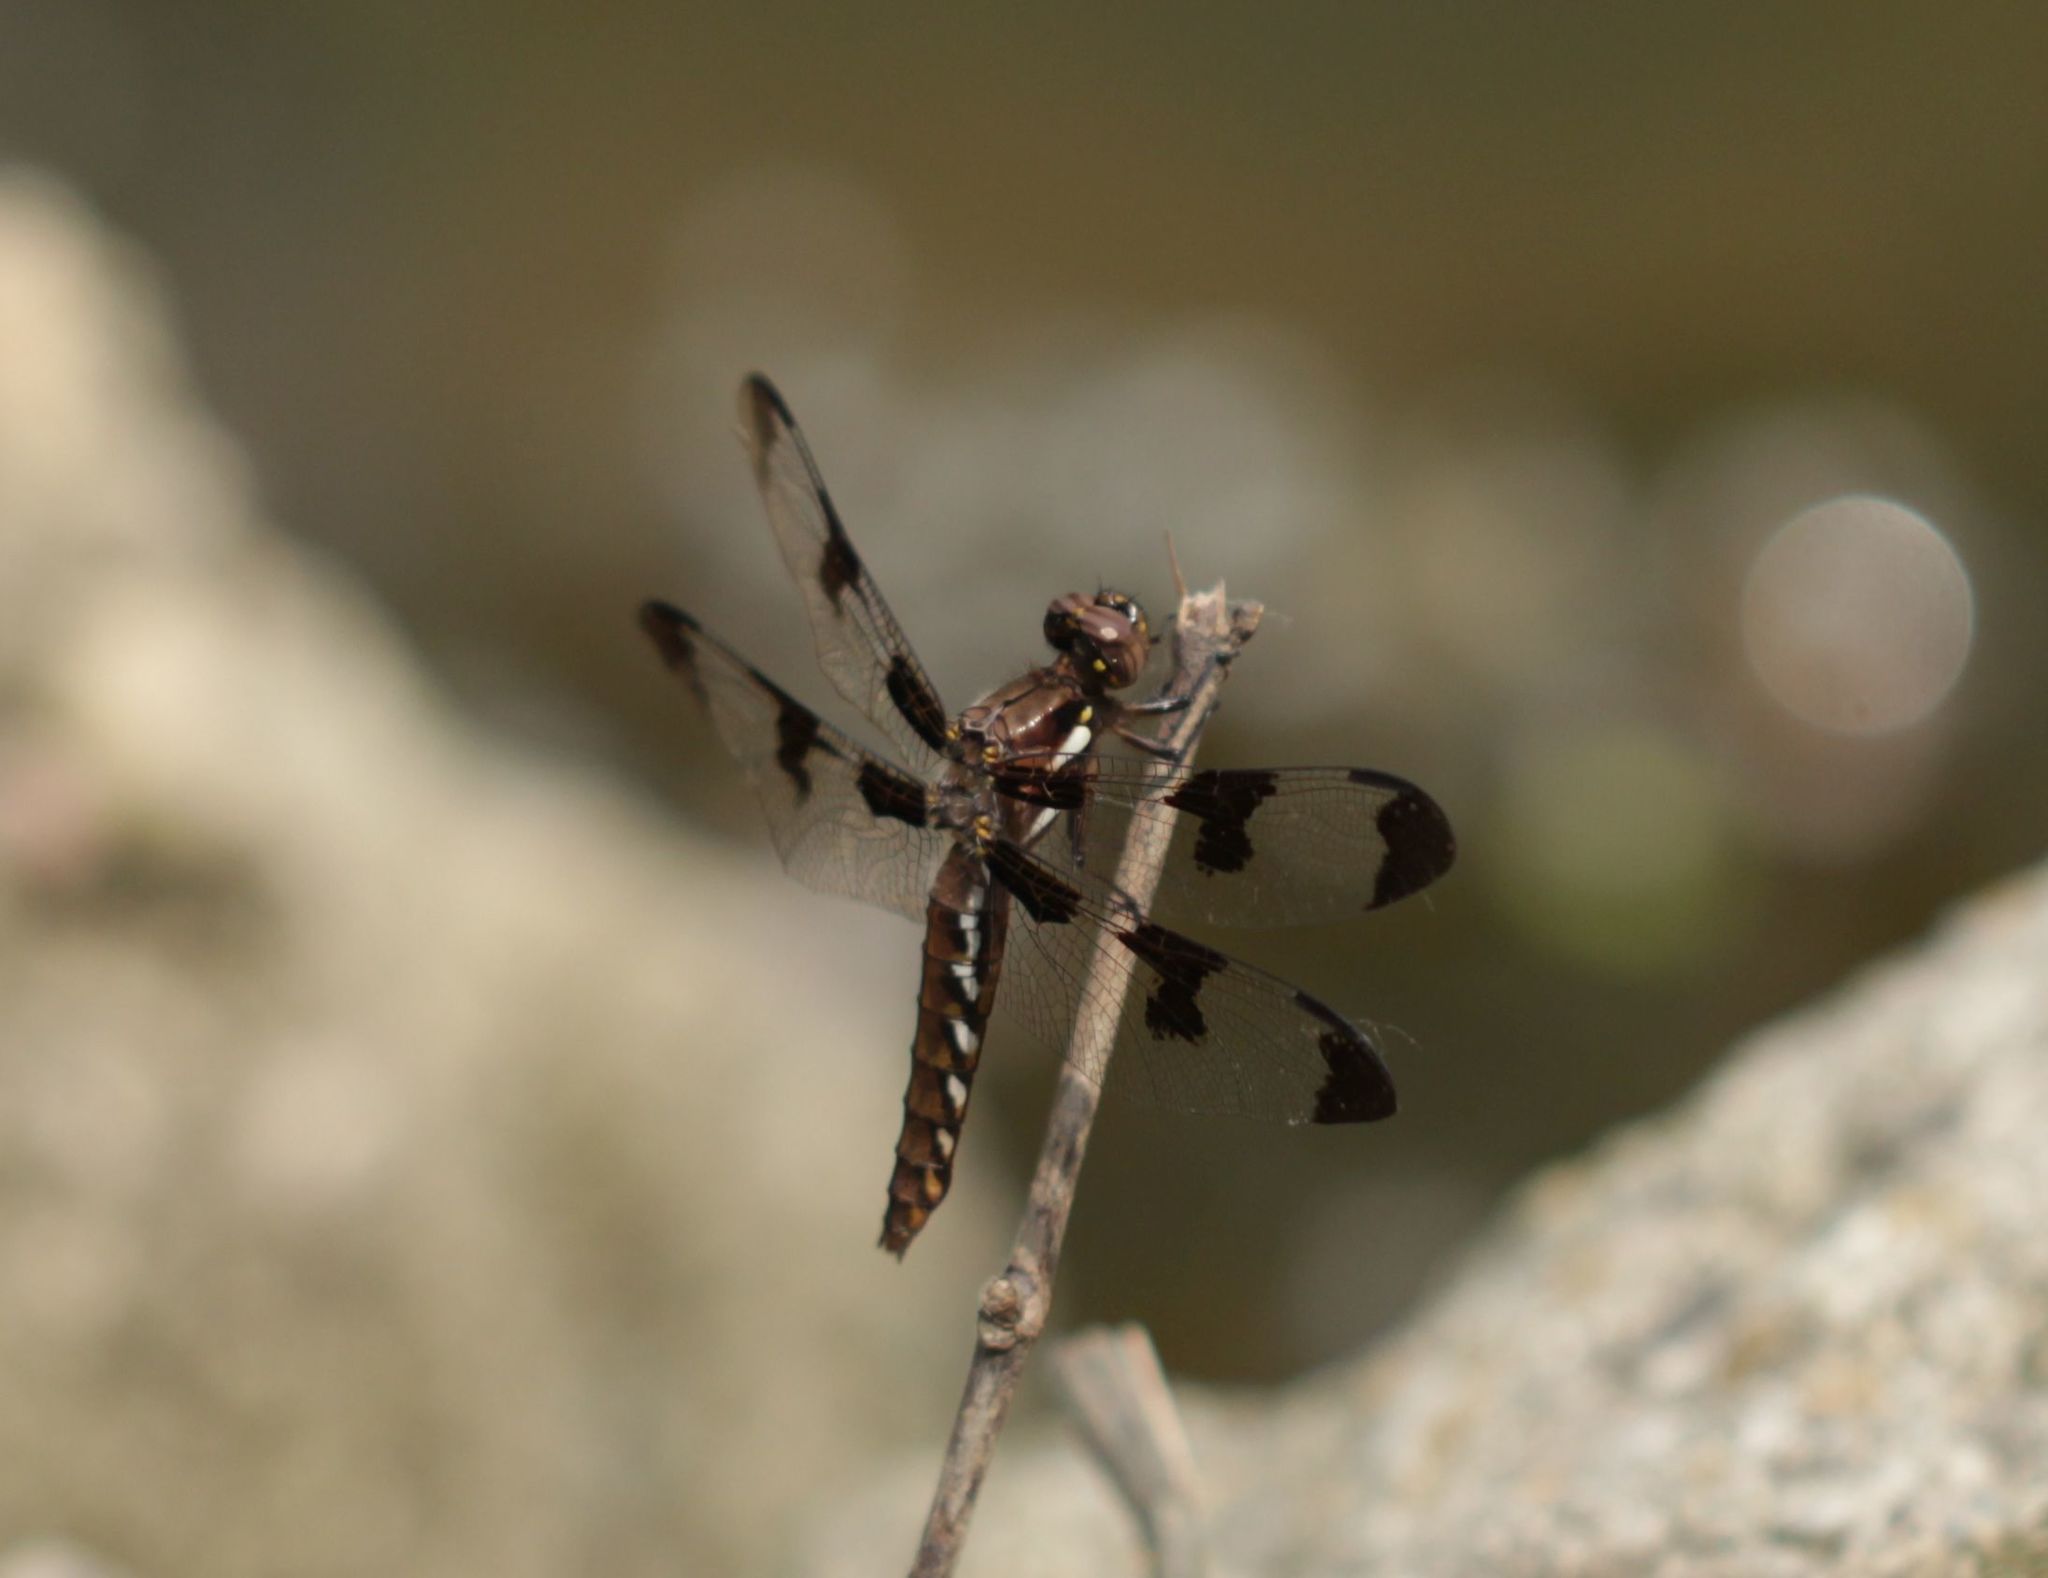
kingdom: Animalia
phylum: Arthropoda
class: Insecta
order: Odonata
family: Libellulidae
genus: Plathemis
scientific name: Plathemis lydia
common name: Common whitetail
